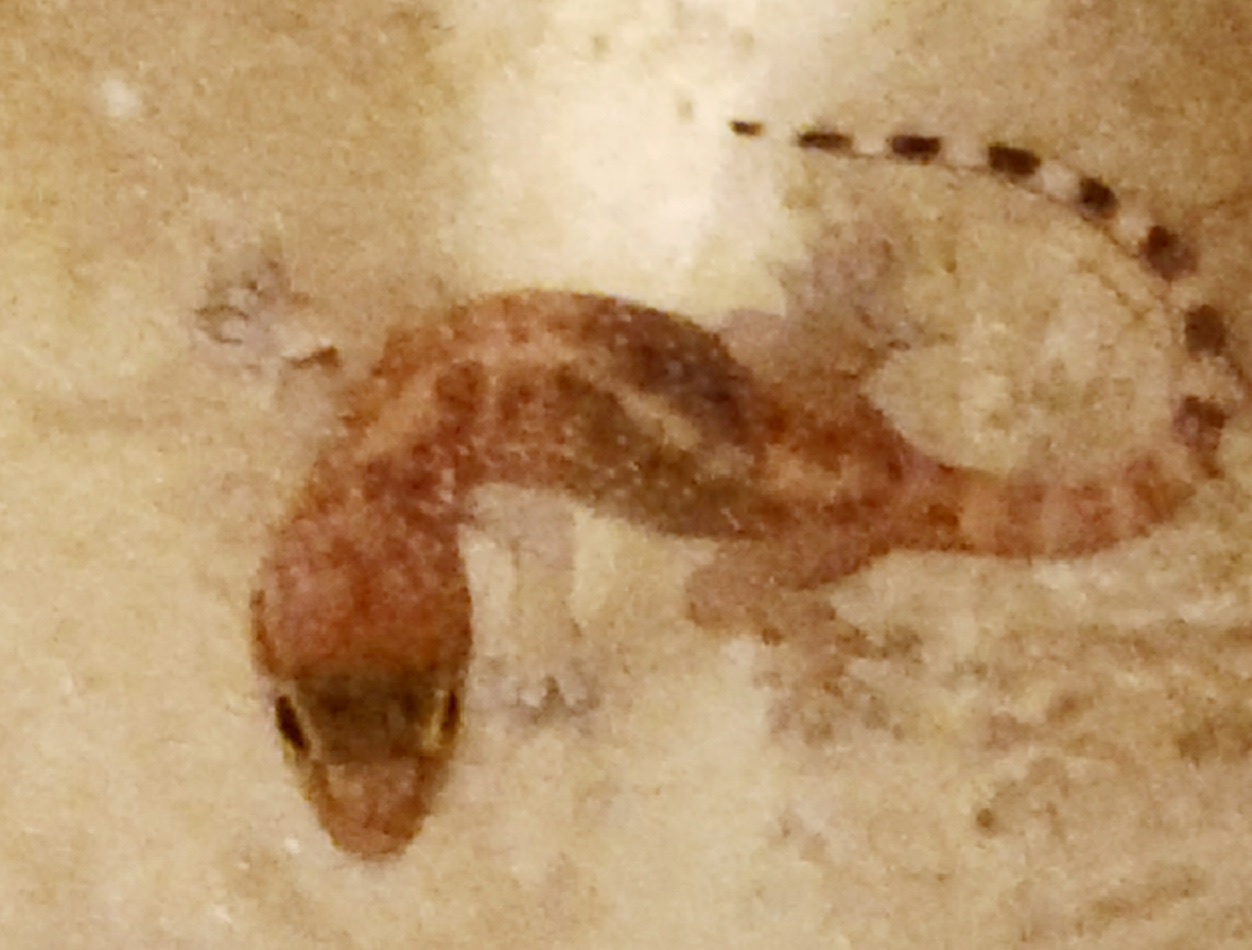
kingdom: Animalia
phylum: Chordata
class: Squamata
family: Gekkonidae
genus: Hemidactylus
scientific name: Hemidactylus turcicus
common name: Turkish gecko
